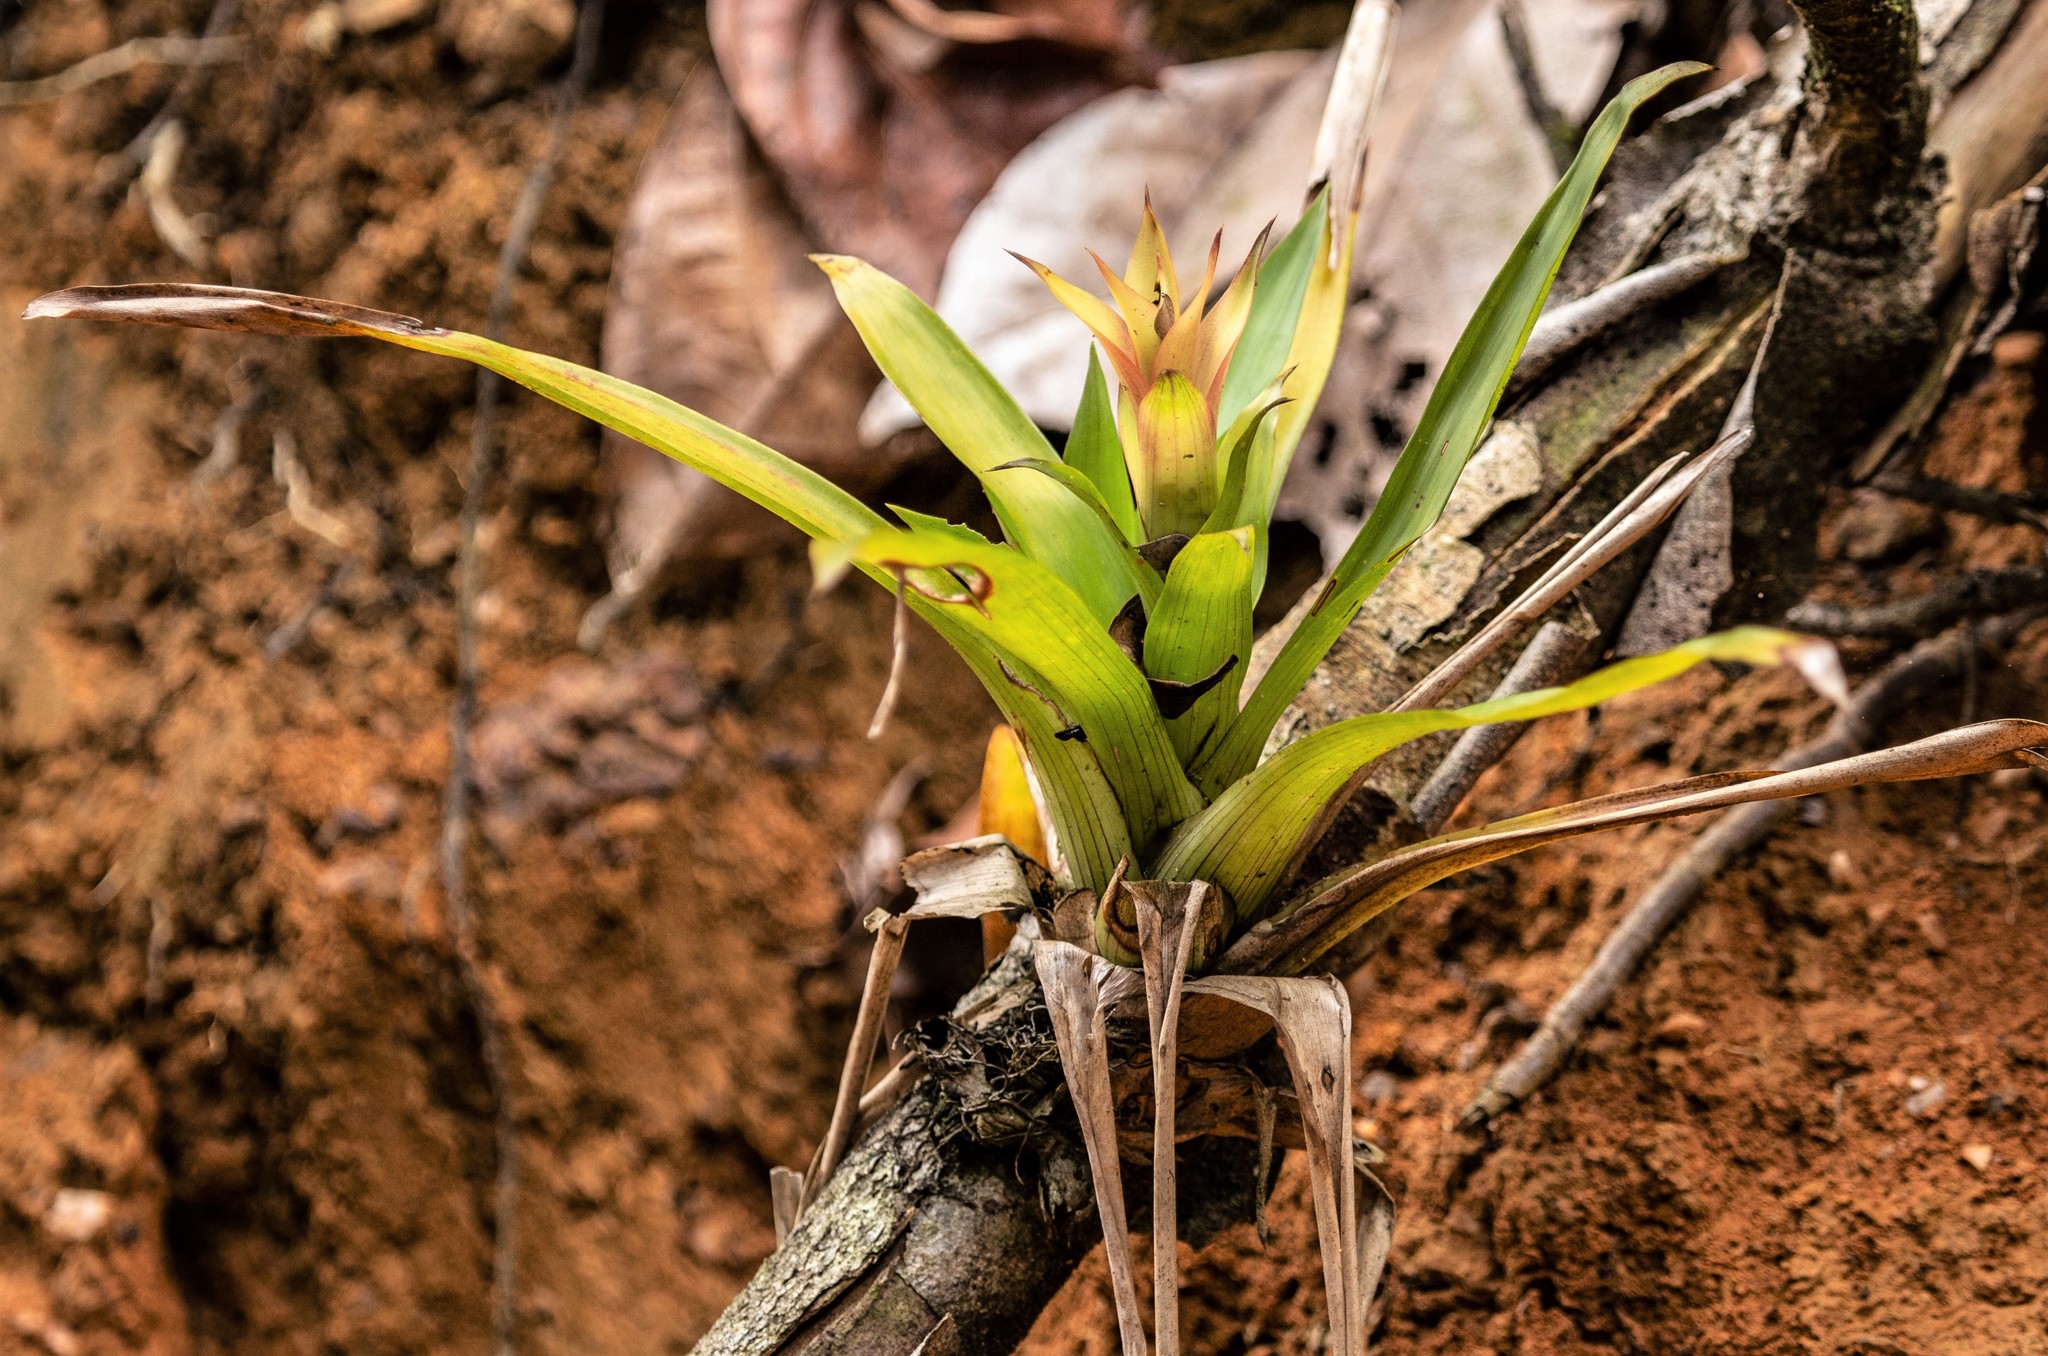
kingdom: Plantae
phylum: Tracheophyta
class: Liliopsida
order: Poales
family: Bromeliaceae
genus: Guzmania
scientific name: Guzmania lingulata
